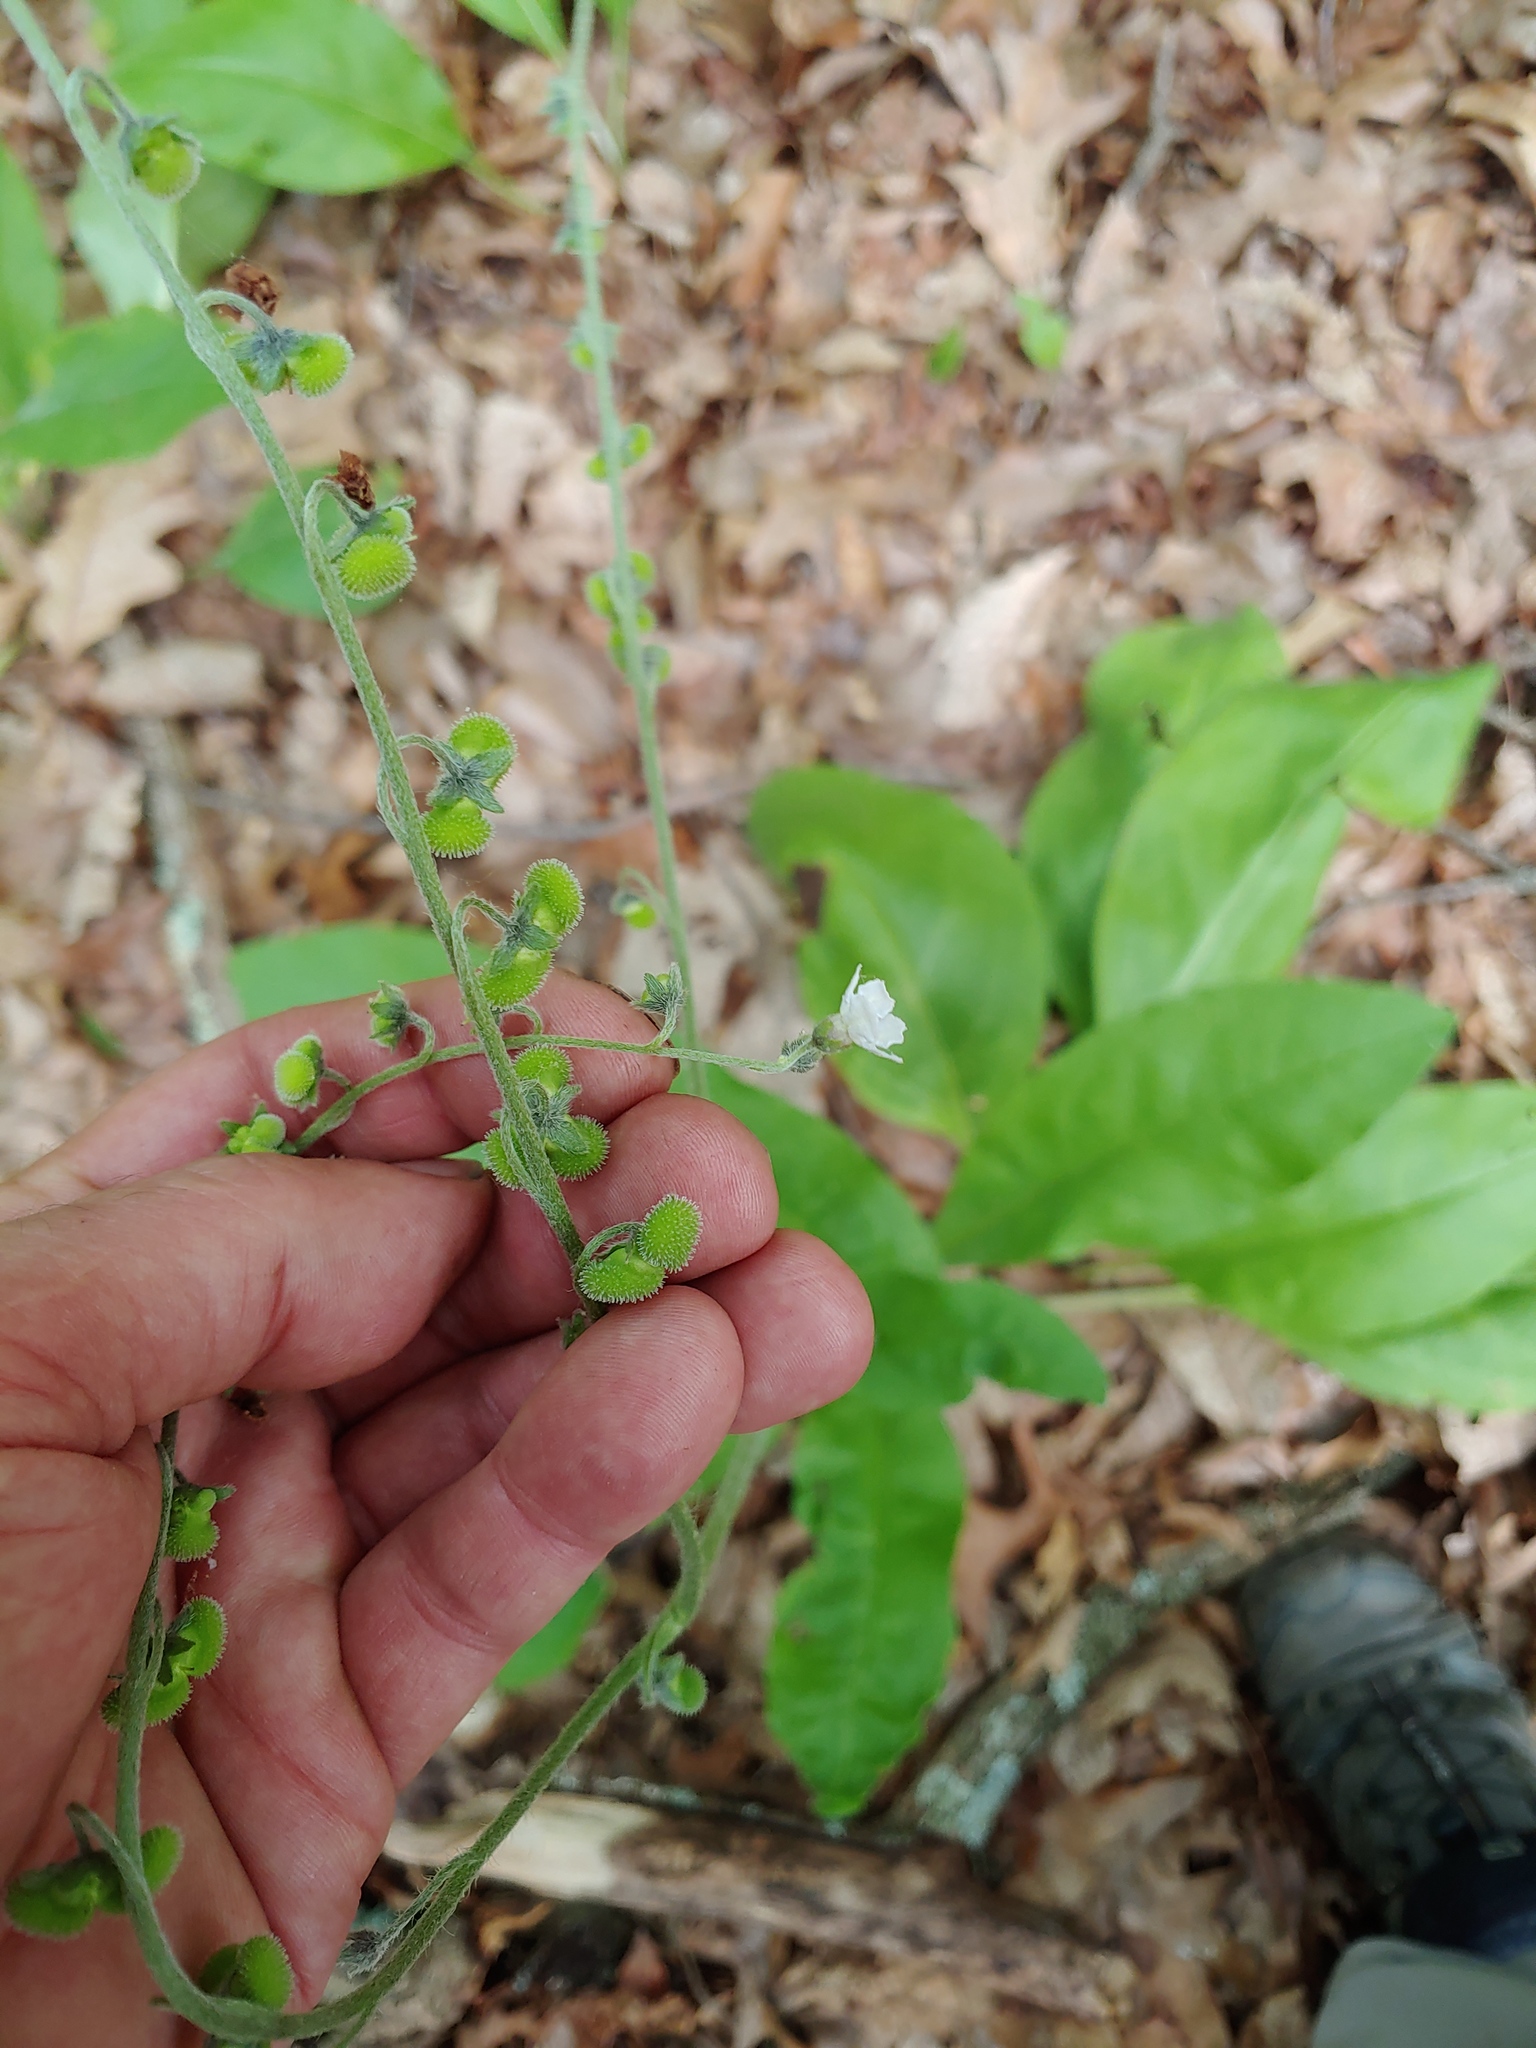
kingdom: Plantae
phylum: Tracheophyta
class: Magnoliopsida
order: Boraginales
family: Boraginaceae
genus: Andersonglossum
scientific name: Andersonglossum virginianum
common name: Wild comfrey
